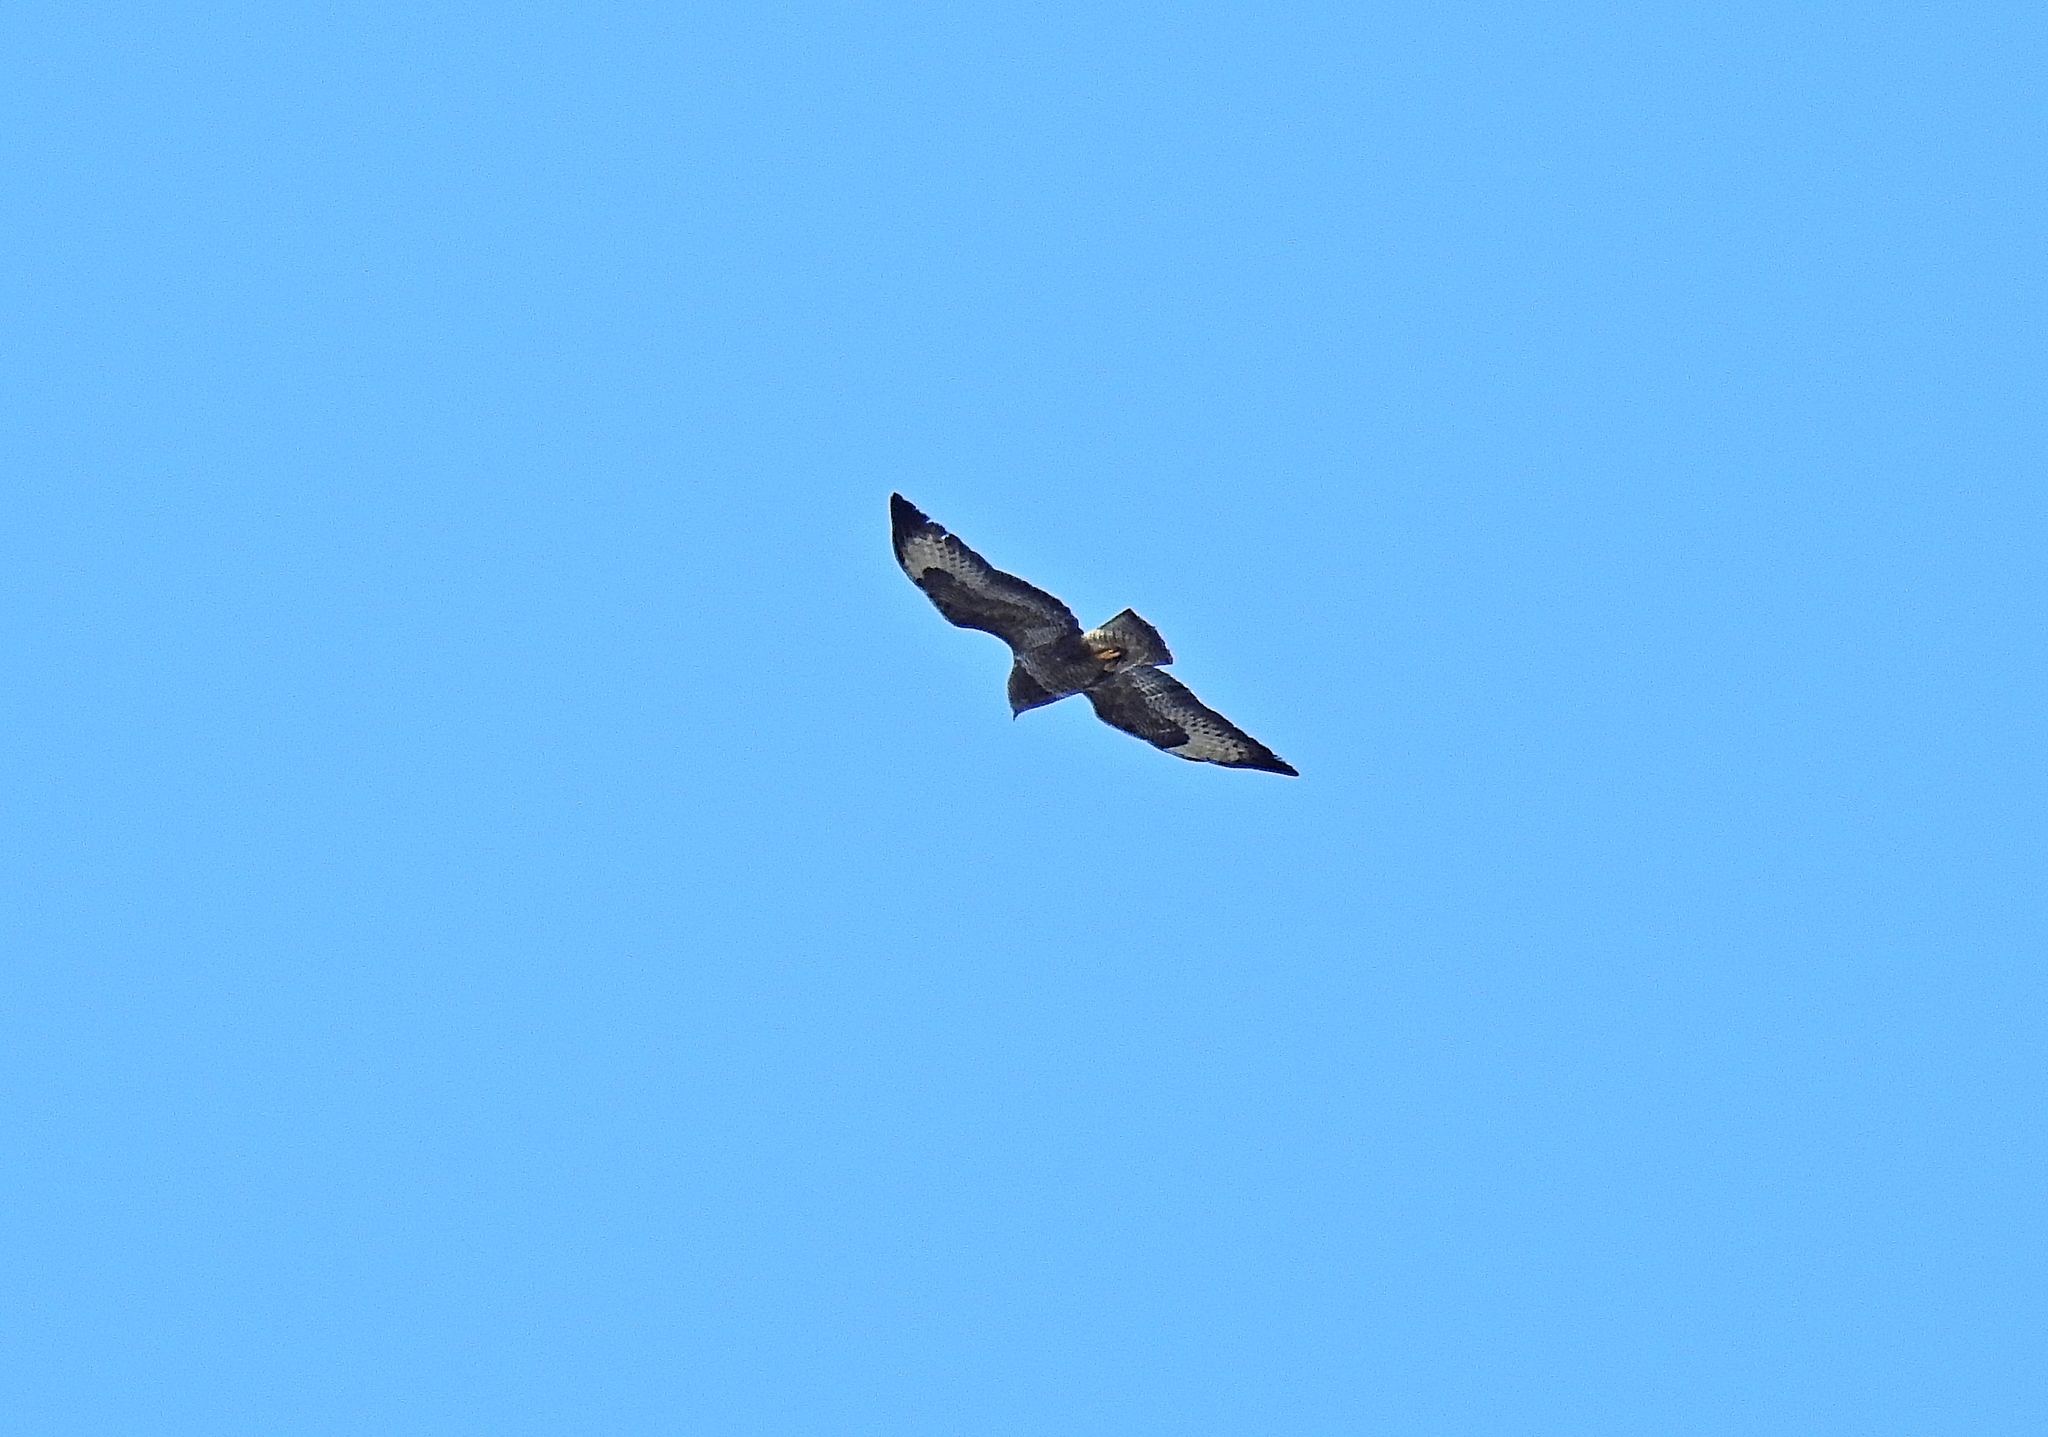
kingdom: Animalia
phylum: Chordata
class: Aves
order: Accipitriformes
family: Accipitridae
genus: Buteo
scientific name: Buteo buteo
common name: Common buzzard
